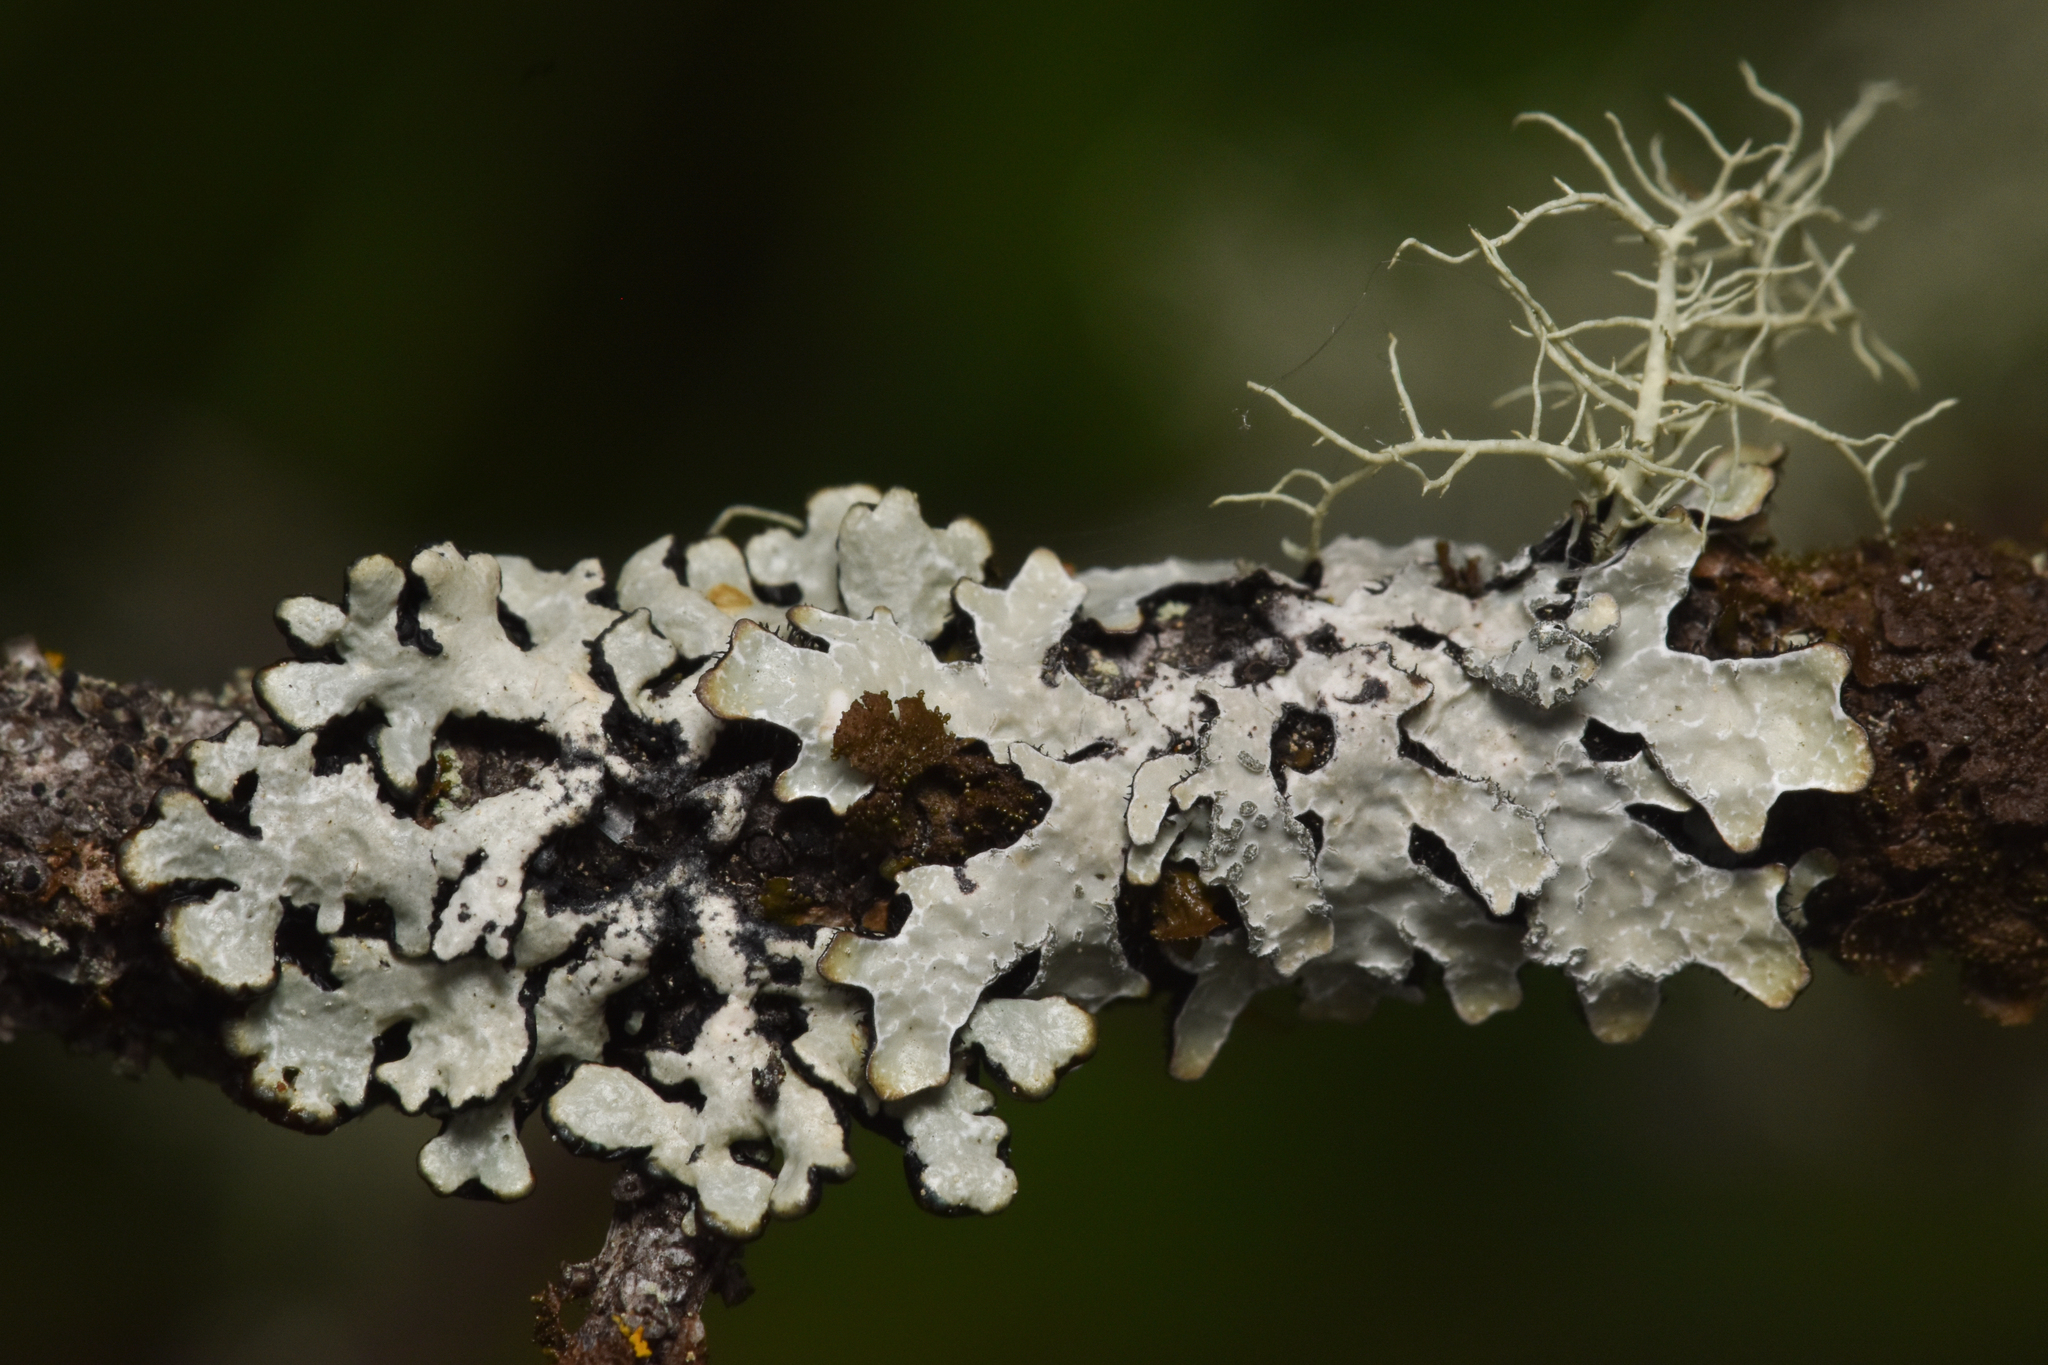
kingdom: Fungi
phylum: Ascomycota
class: Lecanoromycetes
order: Lecanorales
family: Parmeliaceae
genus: Parmelia
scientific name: Parmelia sulcata
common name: Netted shield lichen
